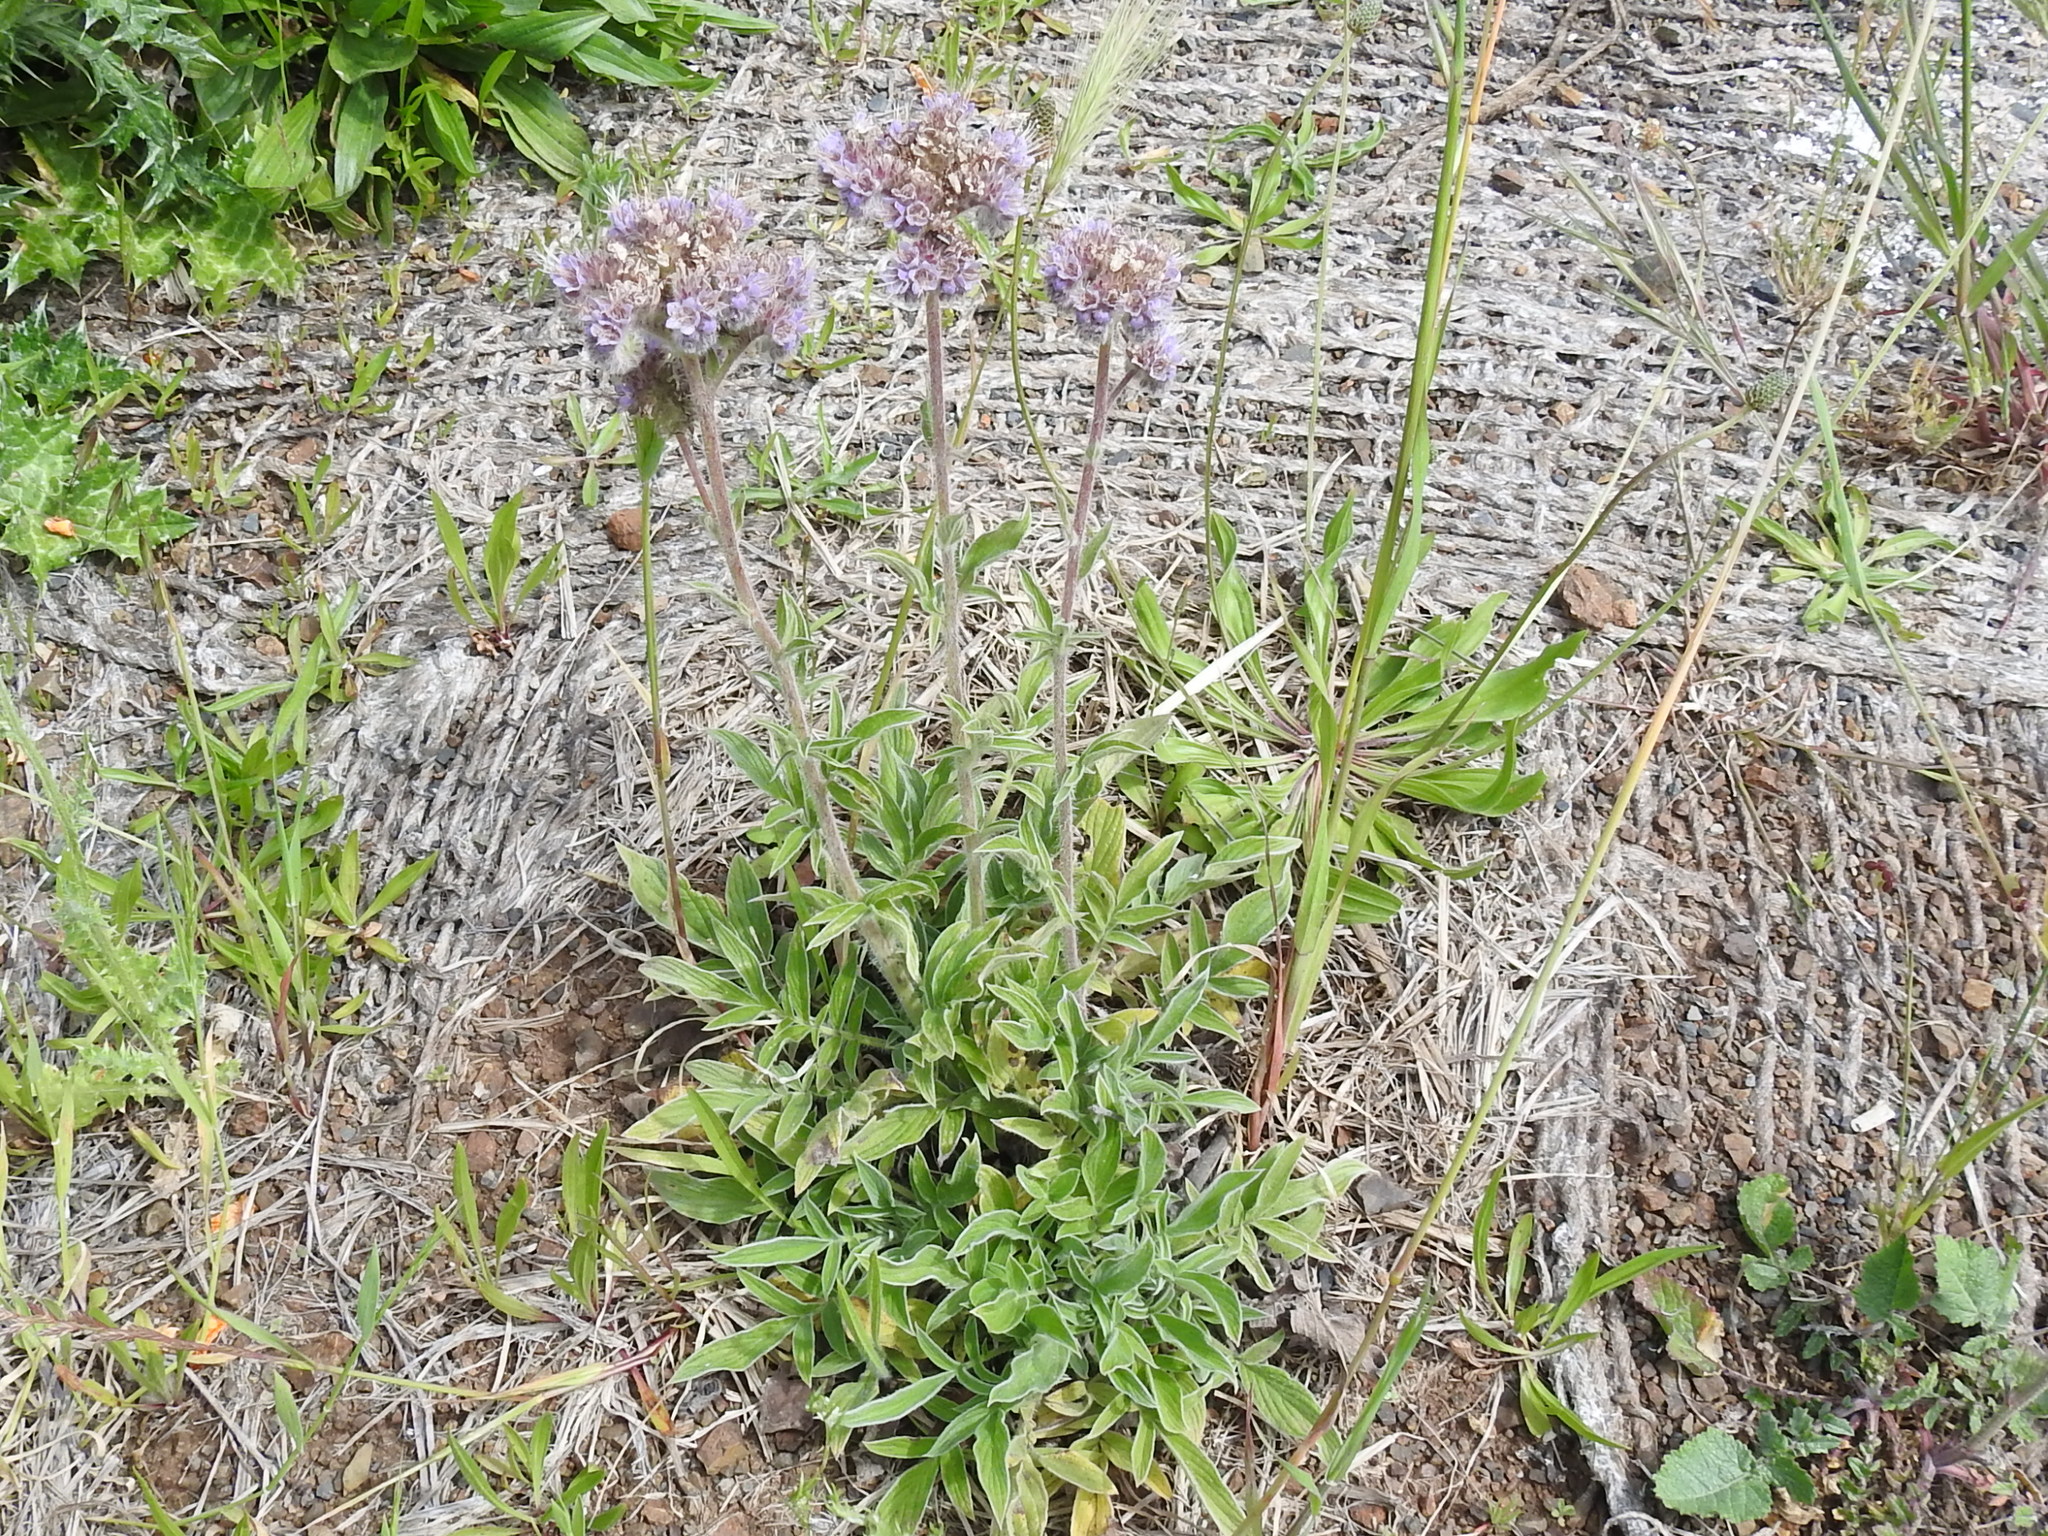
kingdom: Plantae
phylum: Tracheophyta
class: Magnoliopsida
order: Boraginales
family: Hydrophyllaceae
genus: Phacelia
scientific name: Phacelia californica
